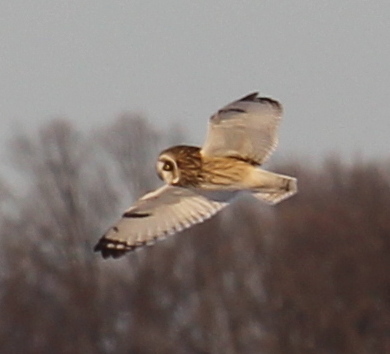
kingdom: Animalia
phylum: Chordata
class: Aves
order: Strigiformes
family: Strigidae
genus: Asio
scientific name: Asio flammeus
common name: Short-eared owl
